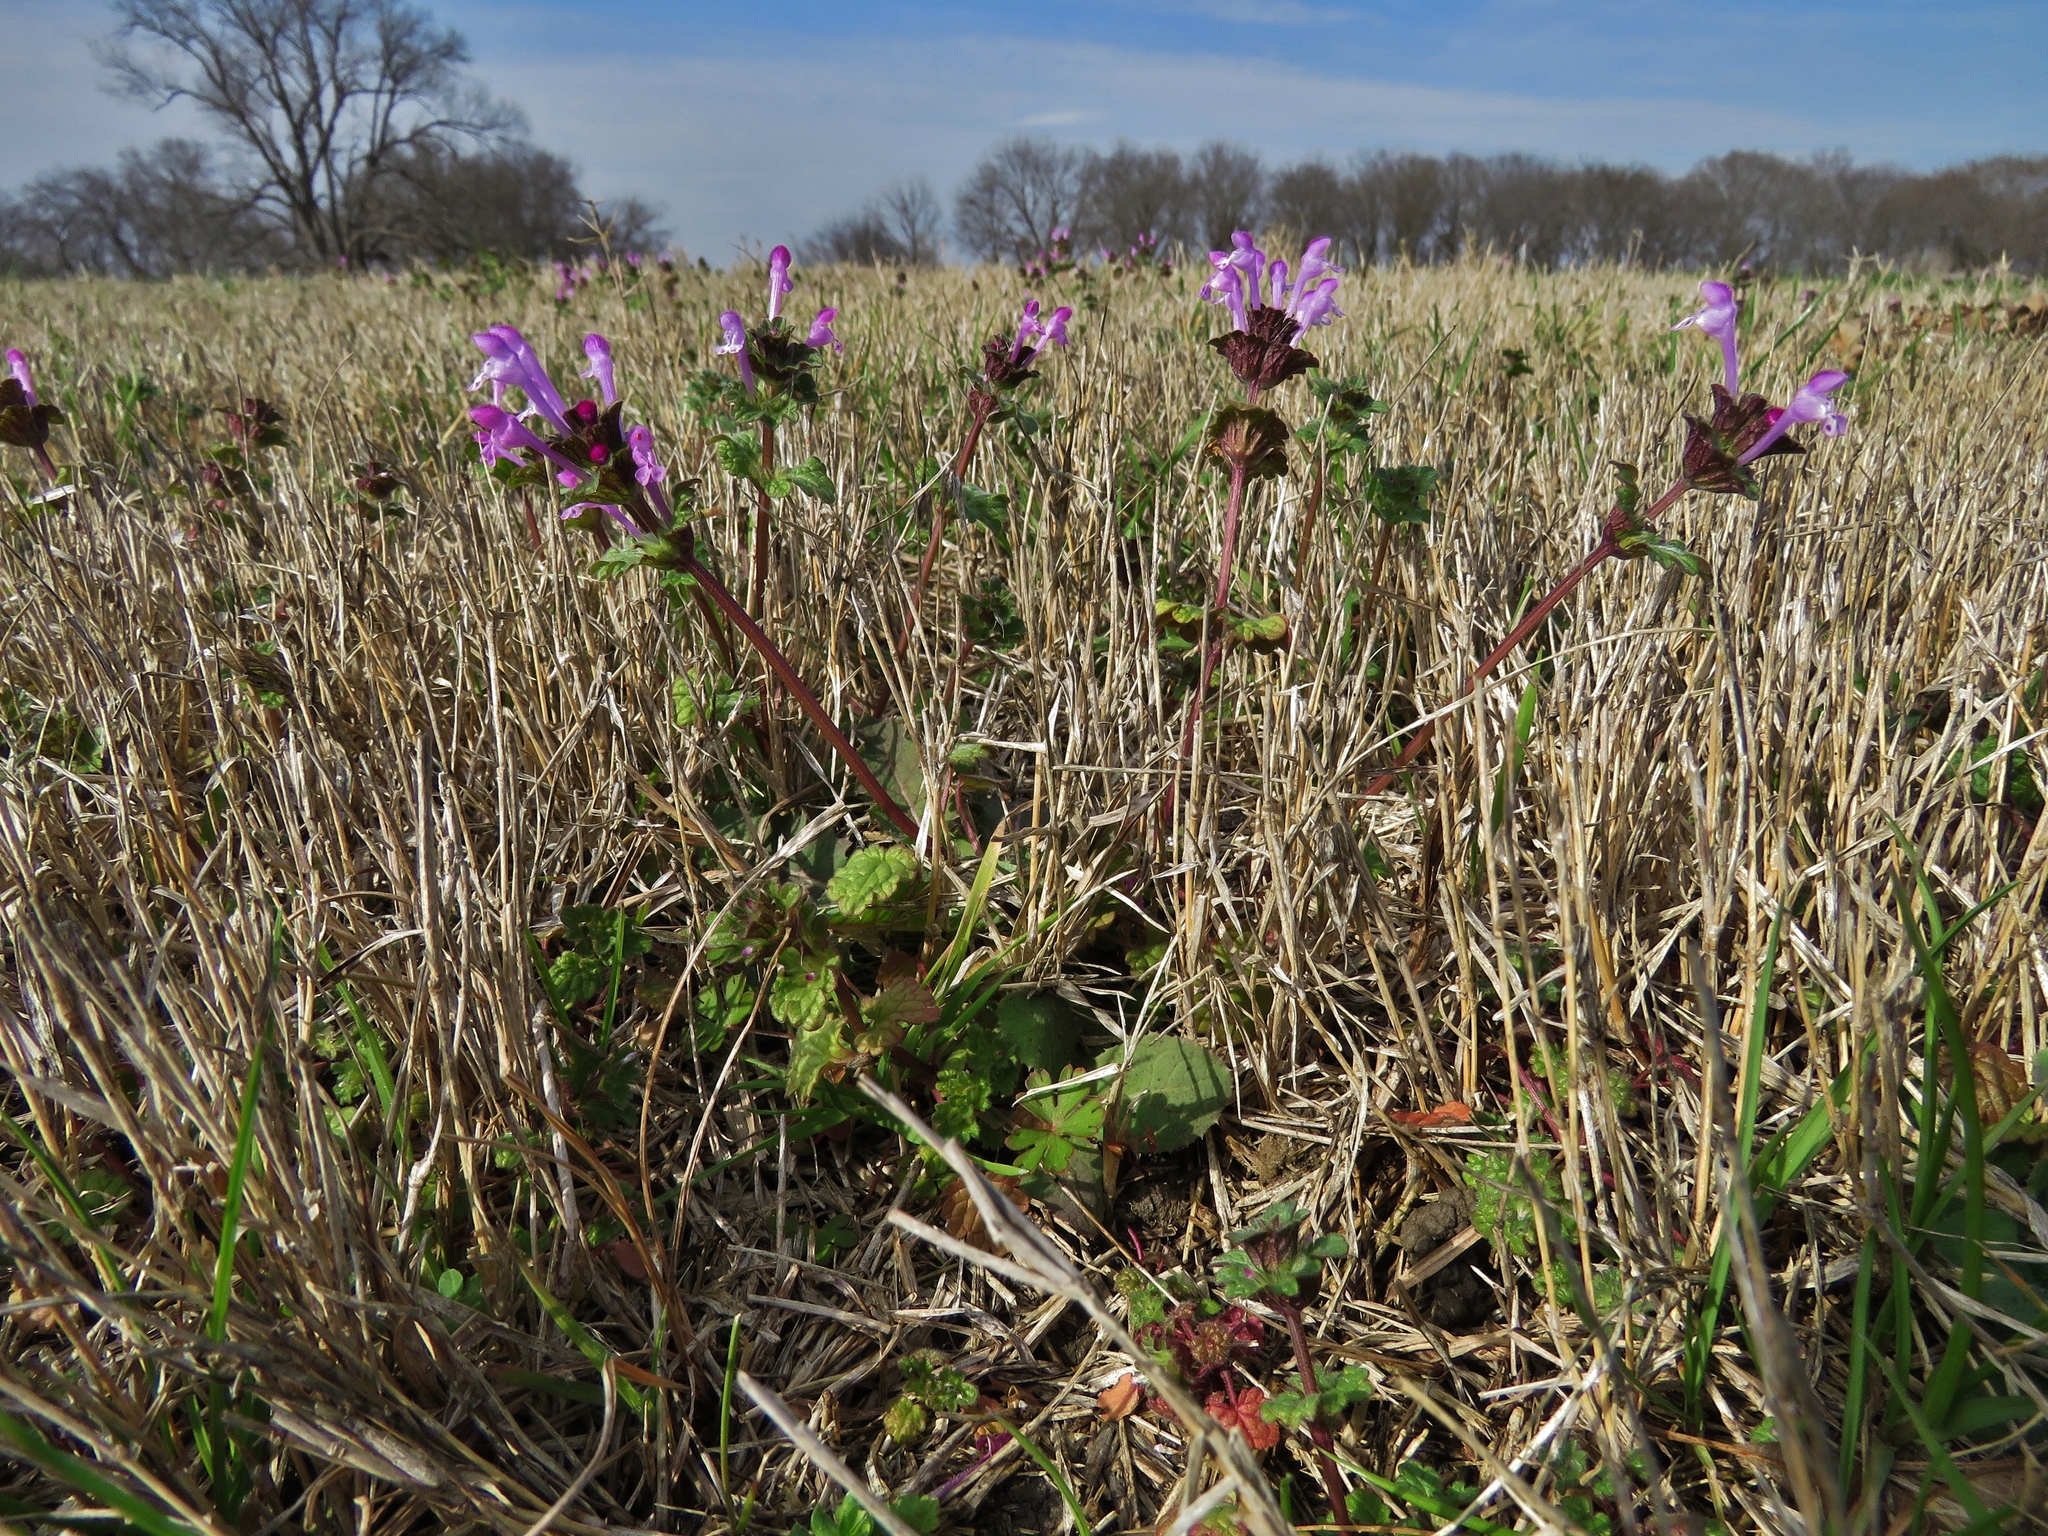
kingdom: Plantae
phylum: Tracheophyta
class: Magnoliopsida
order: Lamiales
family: Lamiaceae
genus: Lamium
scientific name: Lamium amplexicaule
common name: Henbit dead-nettle
